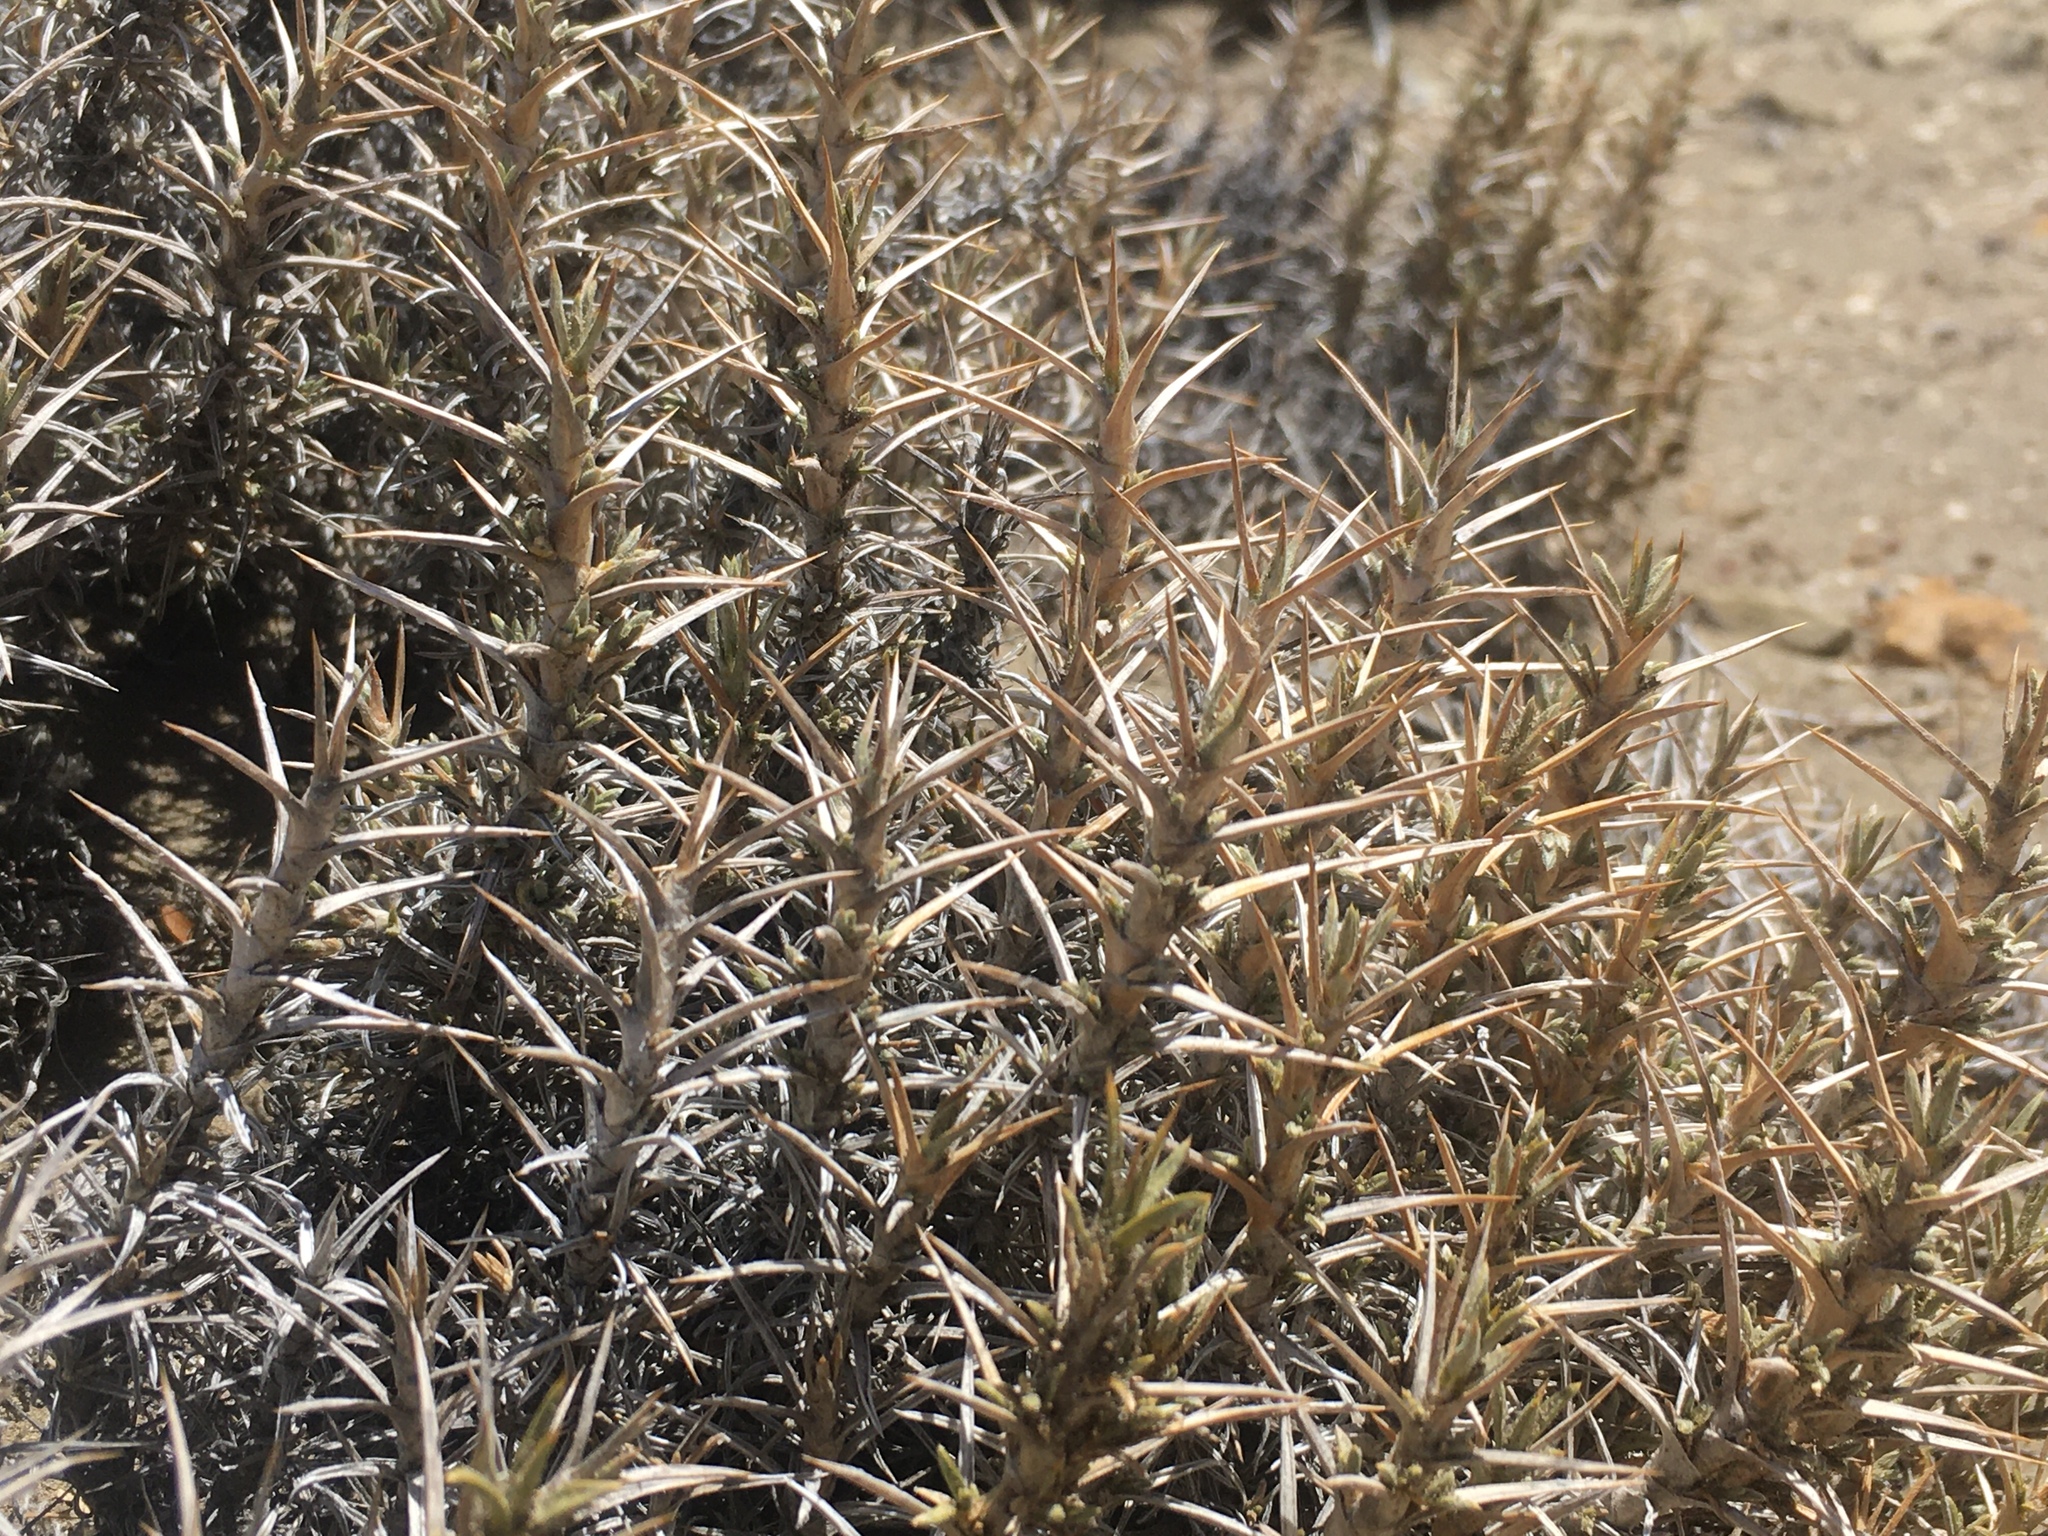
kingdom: Plantae
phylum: Tracheophyta
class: Magnoliopsida
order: Rosales
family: Rosaceae
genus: Margyricarpus
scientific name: Margyricarpus alatus
